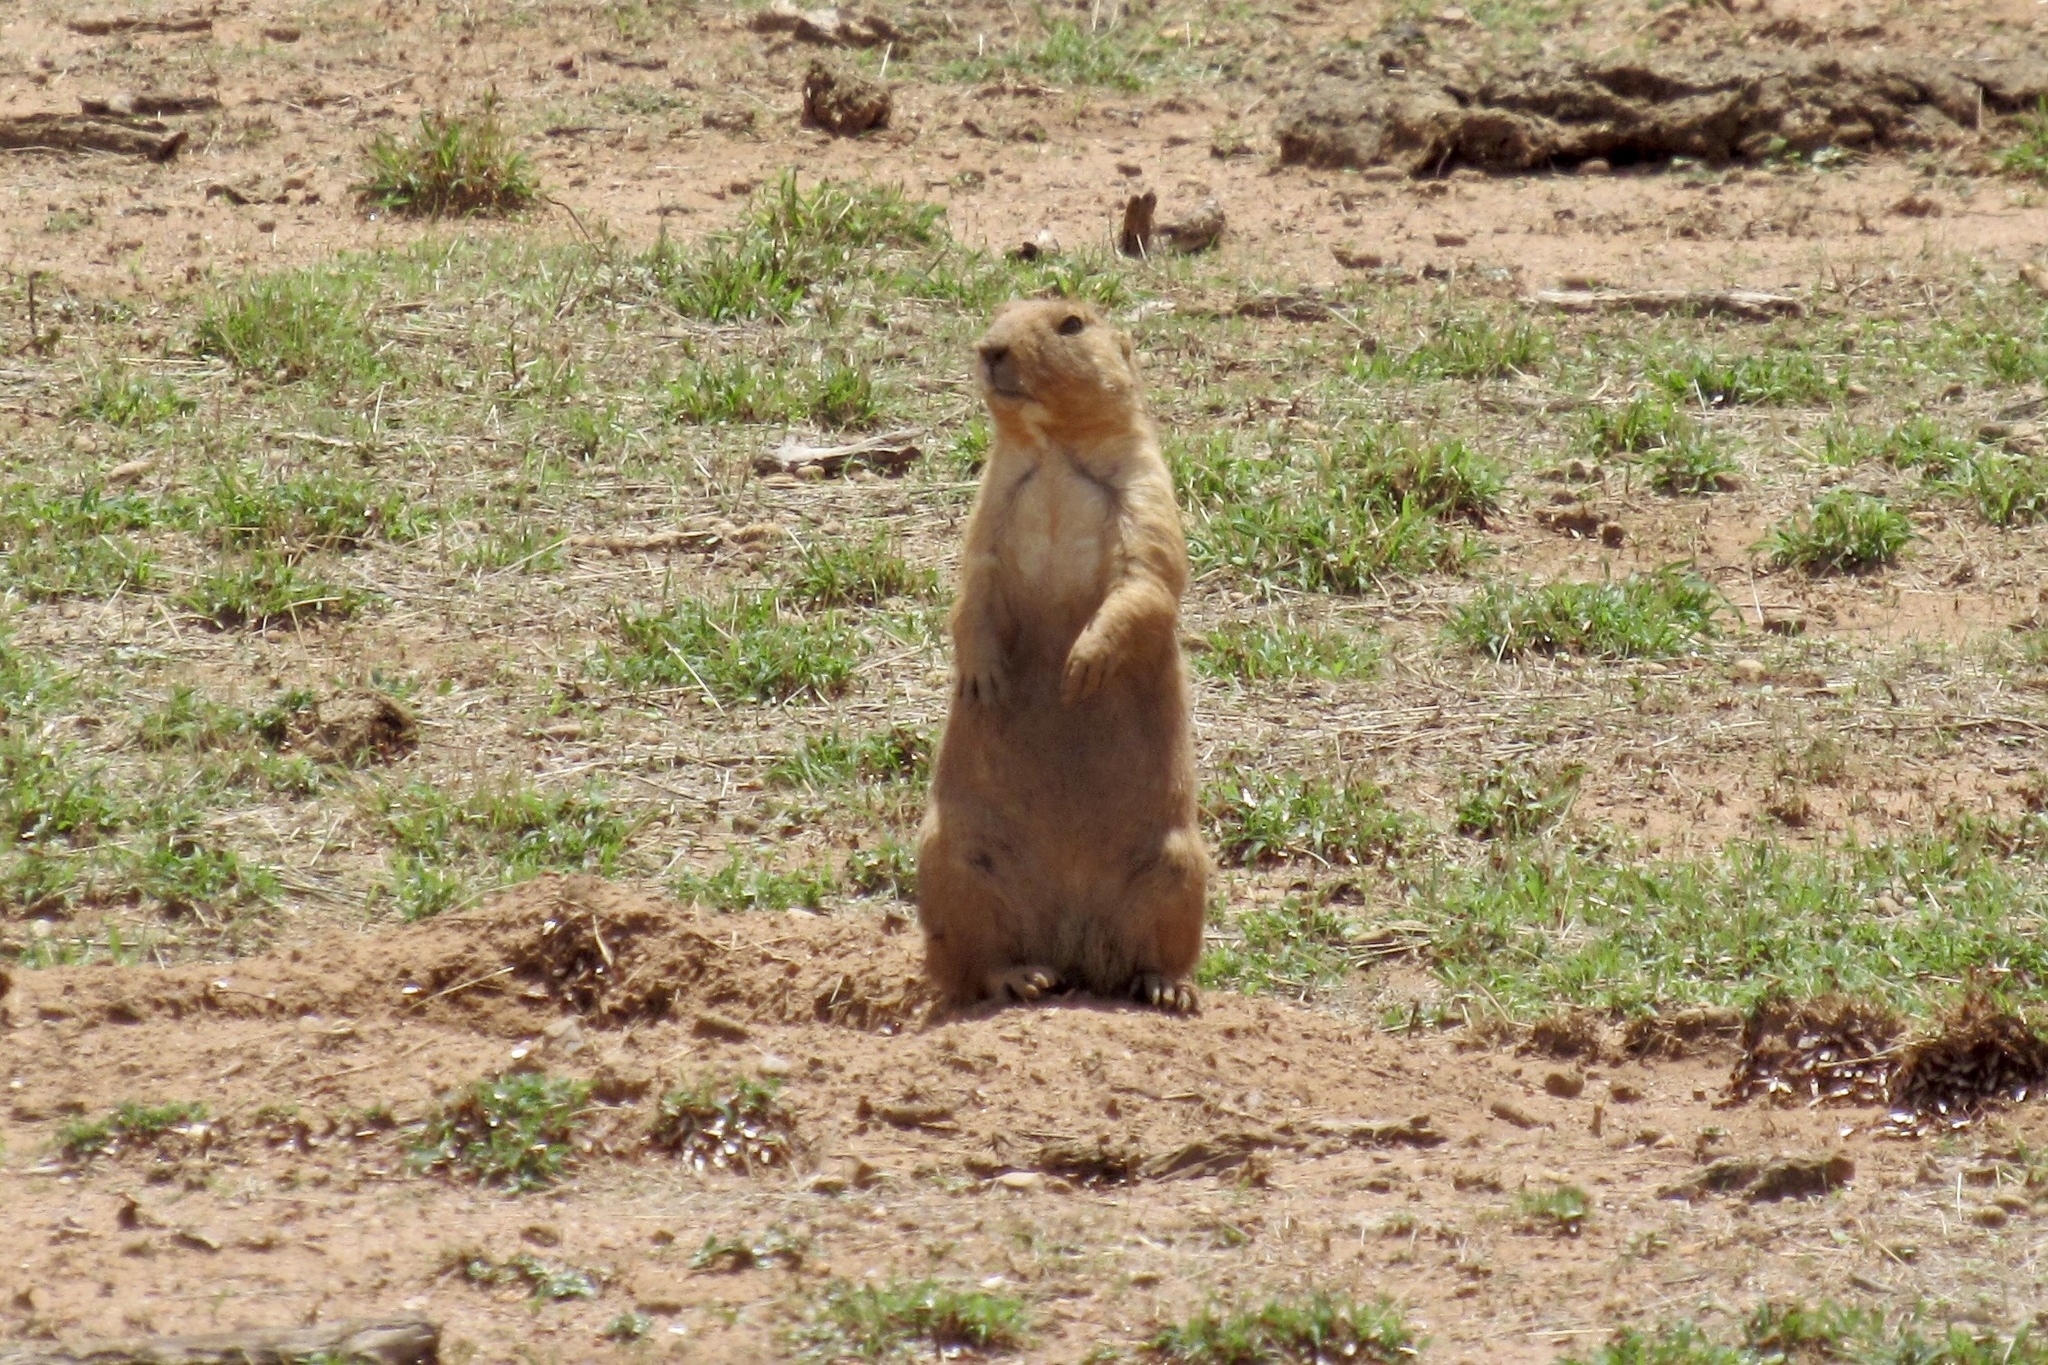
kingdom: Animalia
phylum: Chordata
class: Mammalia
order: Rodentia
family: Sciuridae
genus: Cynomys
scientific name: Cynomys ludovicianus
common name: Black-tailed prairie dog
